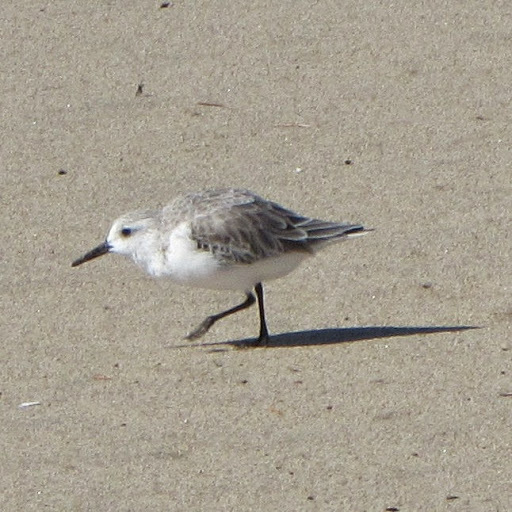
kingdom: Animalia
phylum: Chordata
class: Aves
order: Charadriiformes
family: Scolopacidae
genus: Calidris
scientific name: Calidris alba
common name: Sanderling
